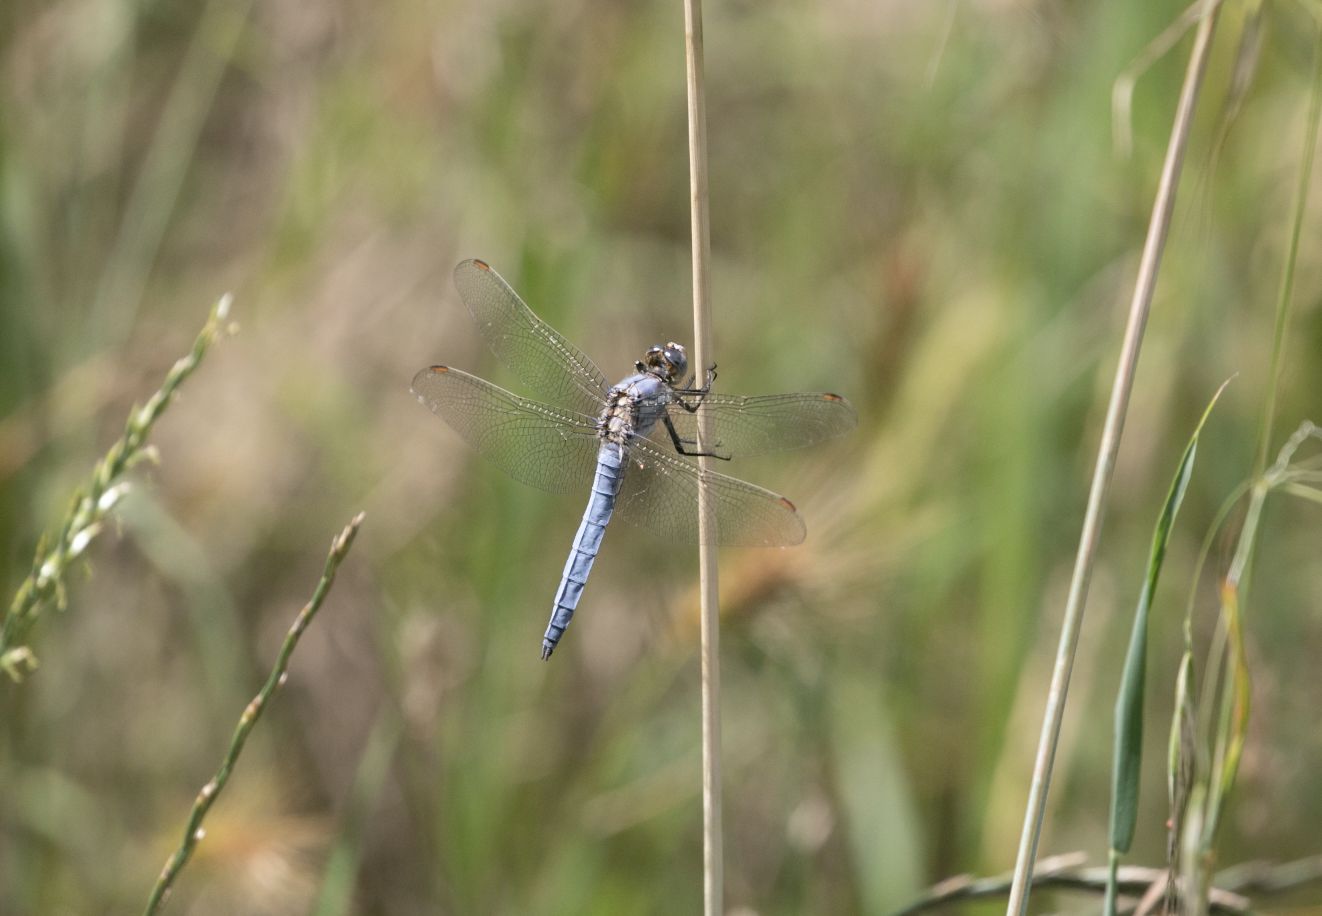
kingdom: Animalia
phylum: Arthropoda
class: Insecta
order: Odonata
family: Libellulidae
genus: Orthetrum
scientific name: Orthetrum brunneum
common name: Southern skimmer
